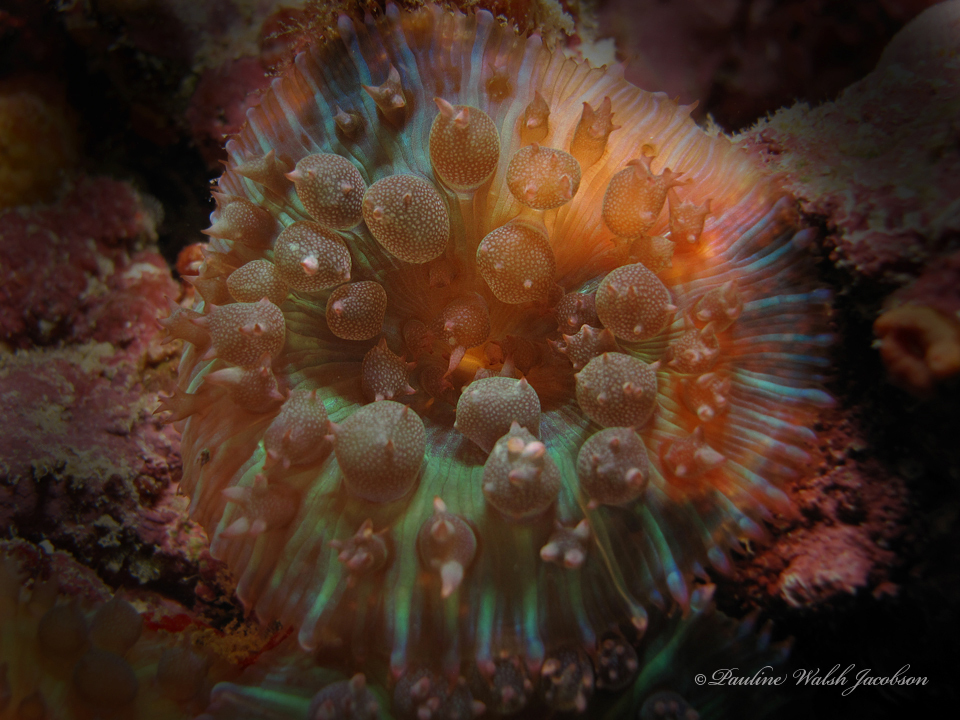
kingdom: Animalia
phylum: Cnidaria
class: Anthozoa
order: Corallimorpharia
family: Discosomidae
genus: Rhodactis
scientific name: Rhodactis osculifera
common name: Warty corallimorph
